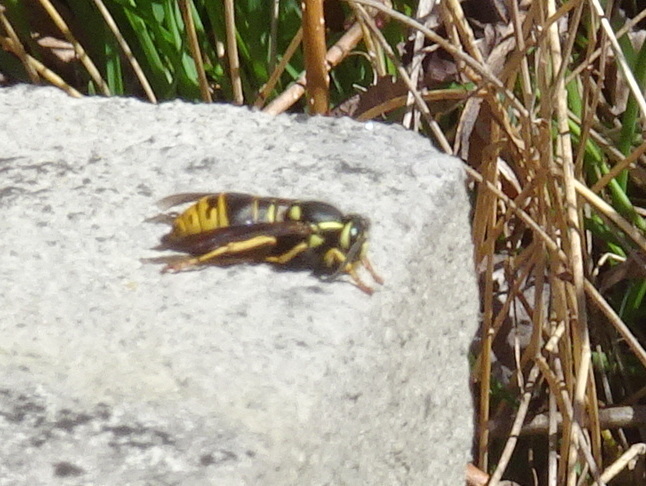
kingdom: Animalia
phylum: Arthropoda
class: Insecta
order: Hymenoptera
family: Vespidae
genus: Vespula
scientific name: Vespula vidua
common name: Widow yellowjacket
